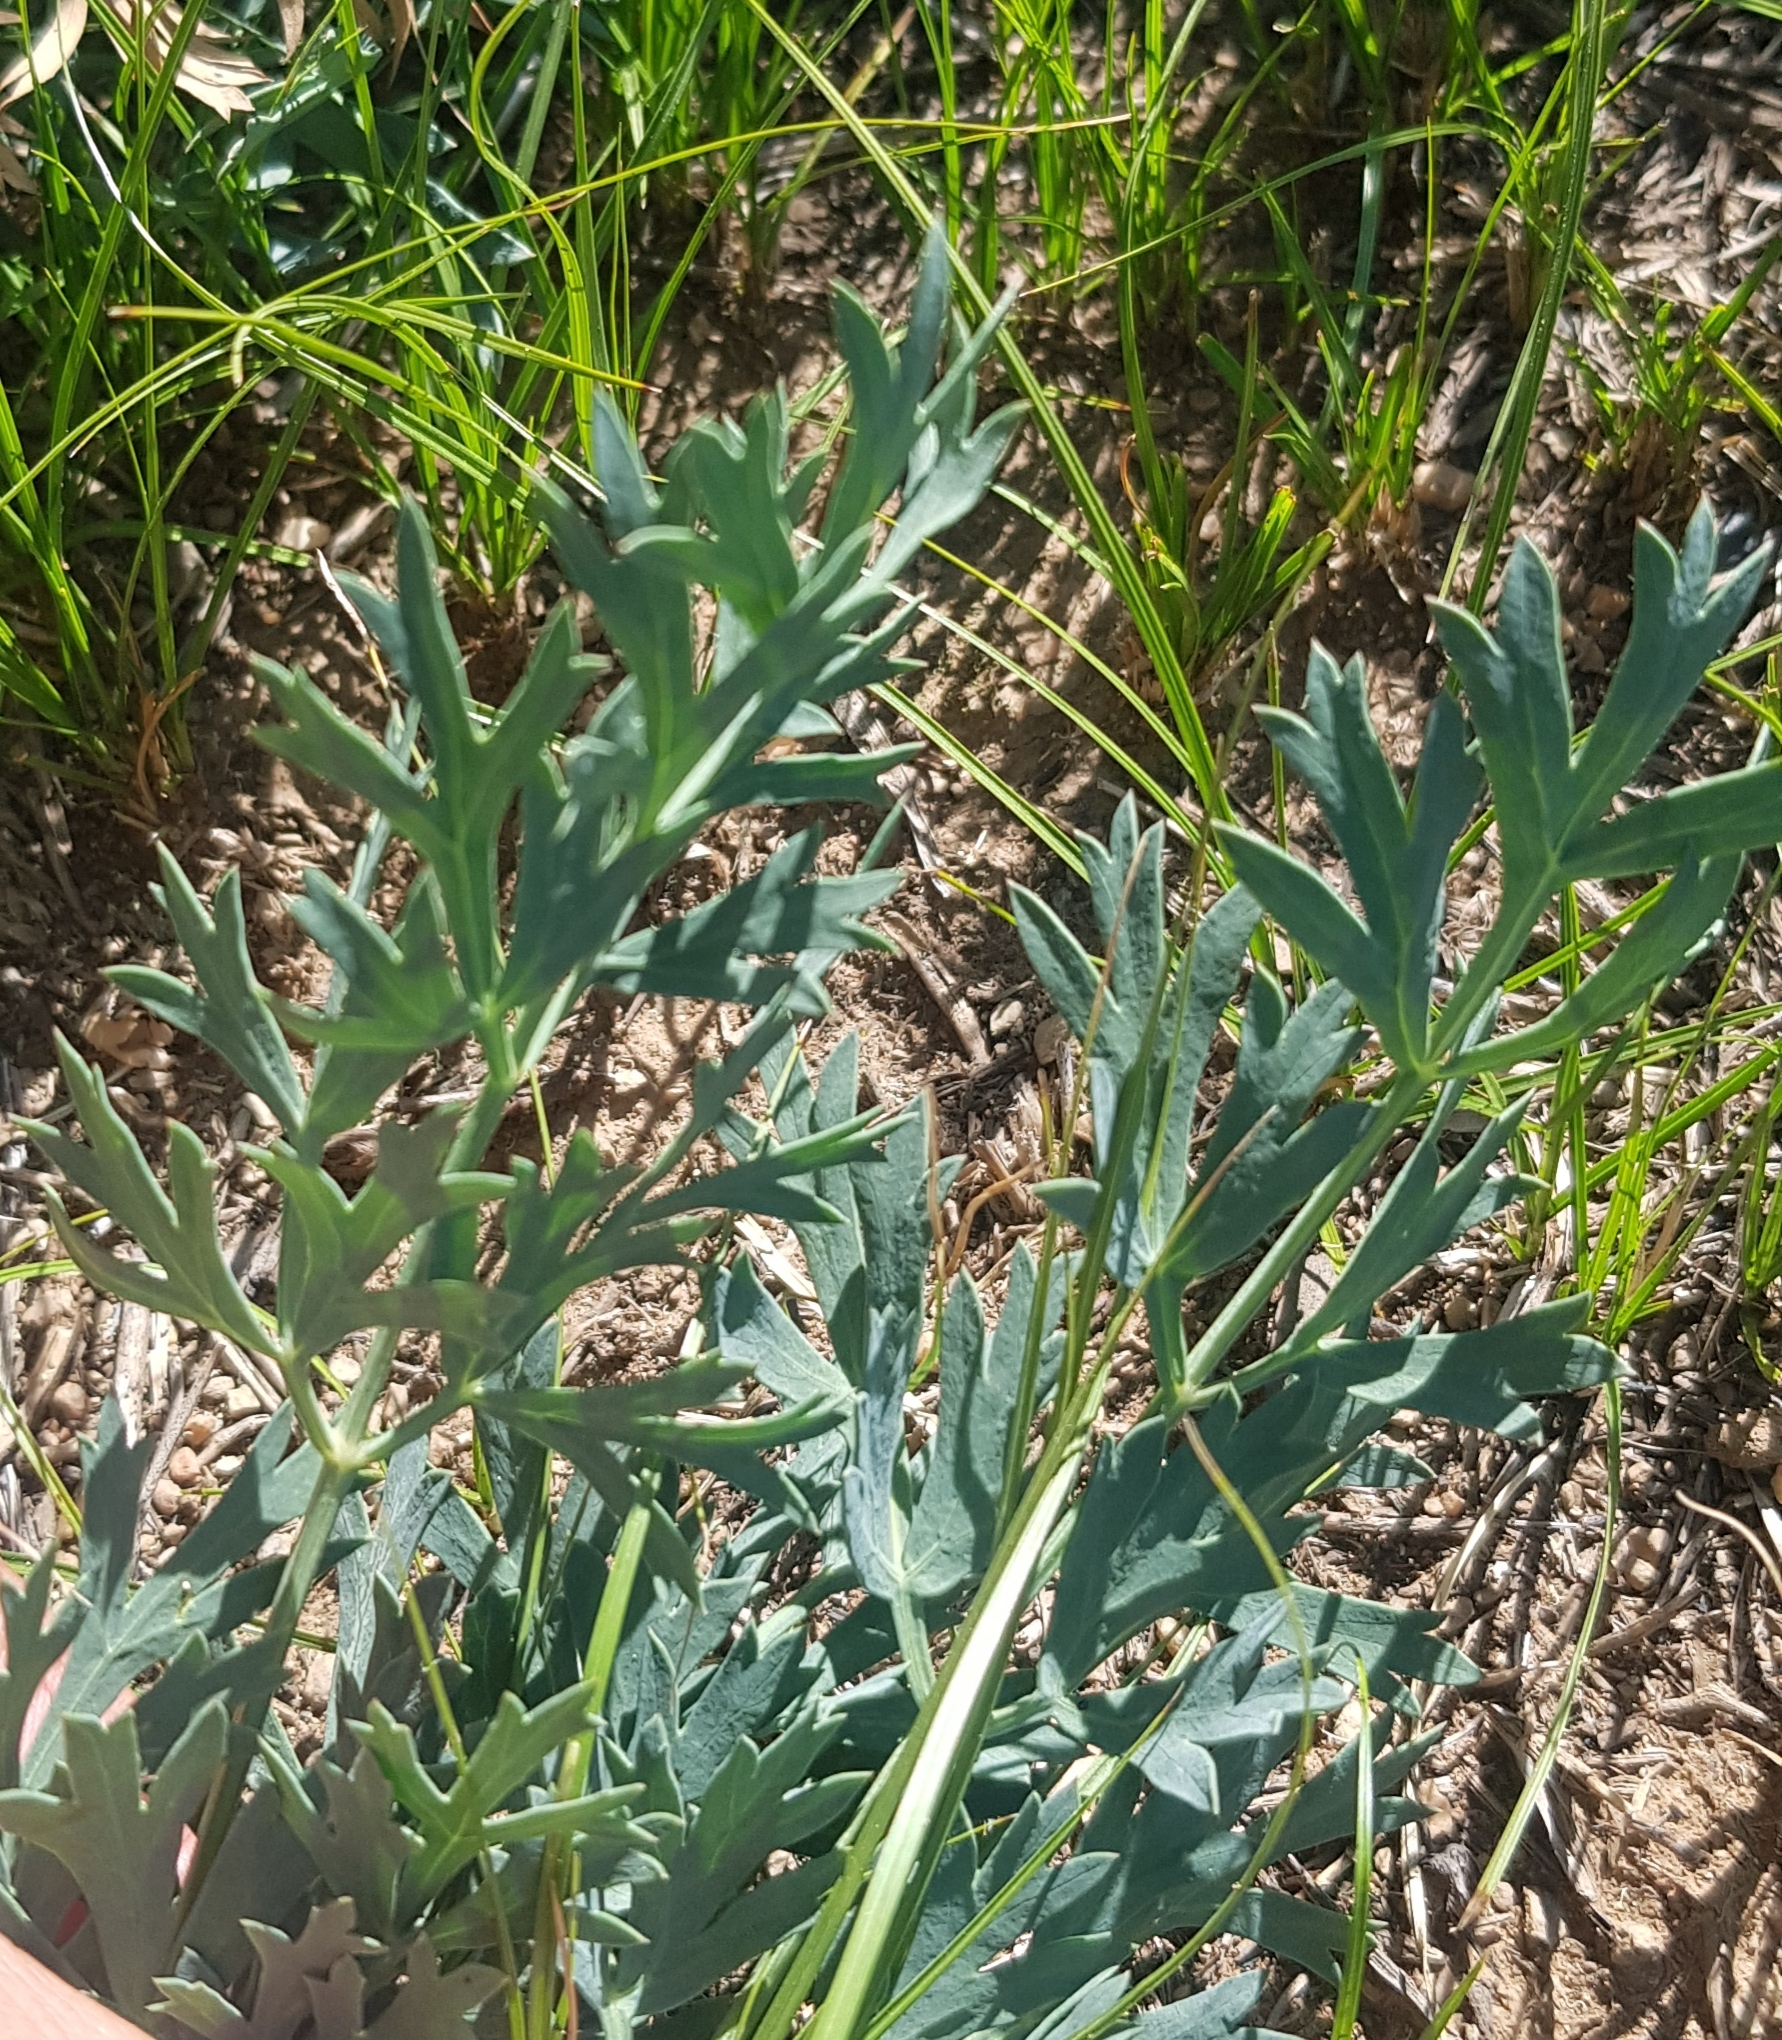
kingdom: Plantae
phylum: Tracheophyta
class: Magnoliopsida
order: Apiales
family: Apiaceae
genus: Saposhnikovia
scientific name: Saposhnikovia divaricata
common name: Siler
